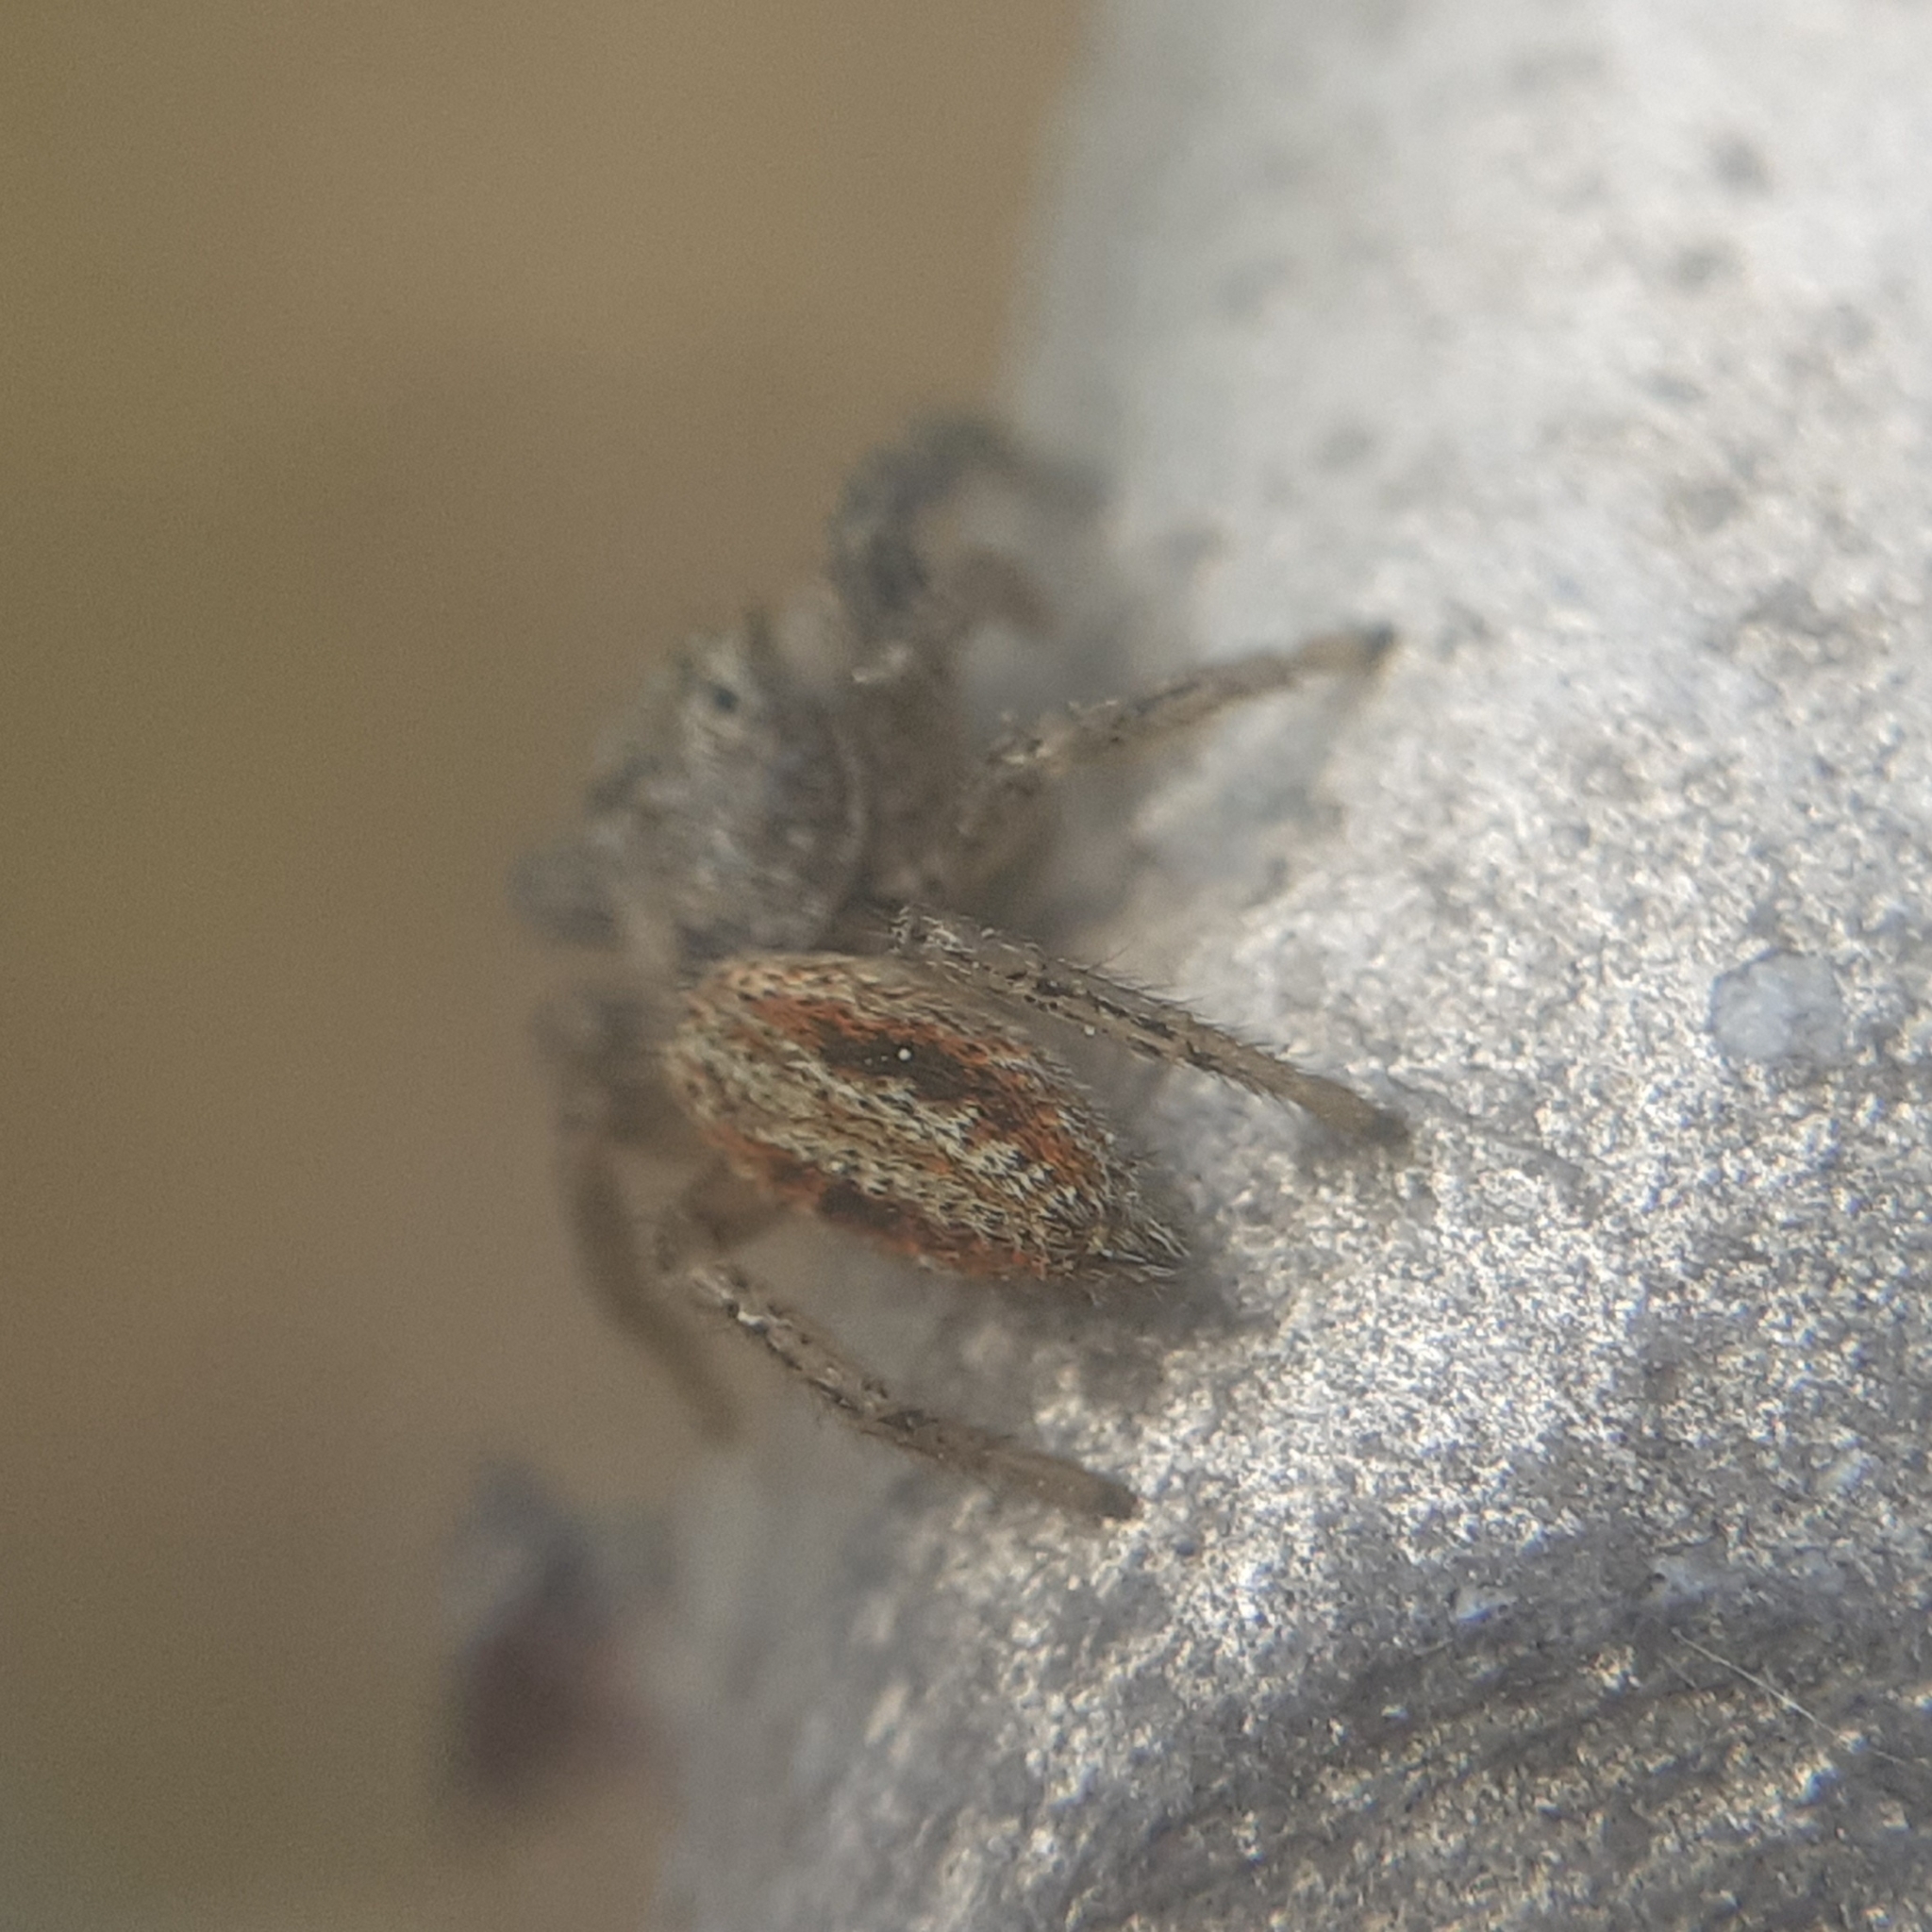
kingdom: Animalia
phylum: Arthropoda
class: Arachnida
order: Araneae
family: Salticidae
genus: Marpissa
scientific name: Marpissa radiata
